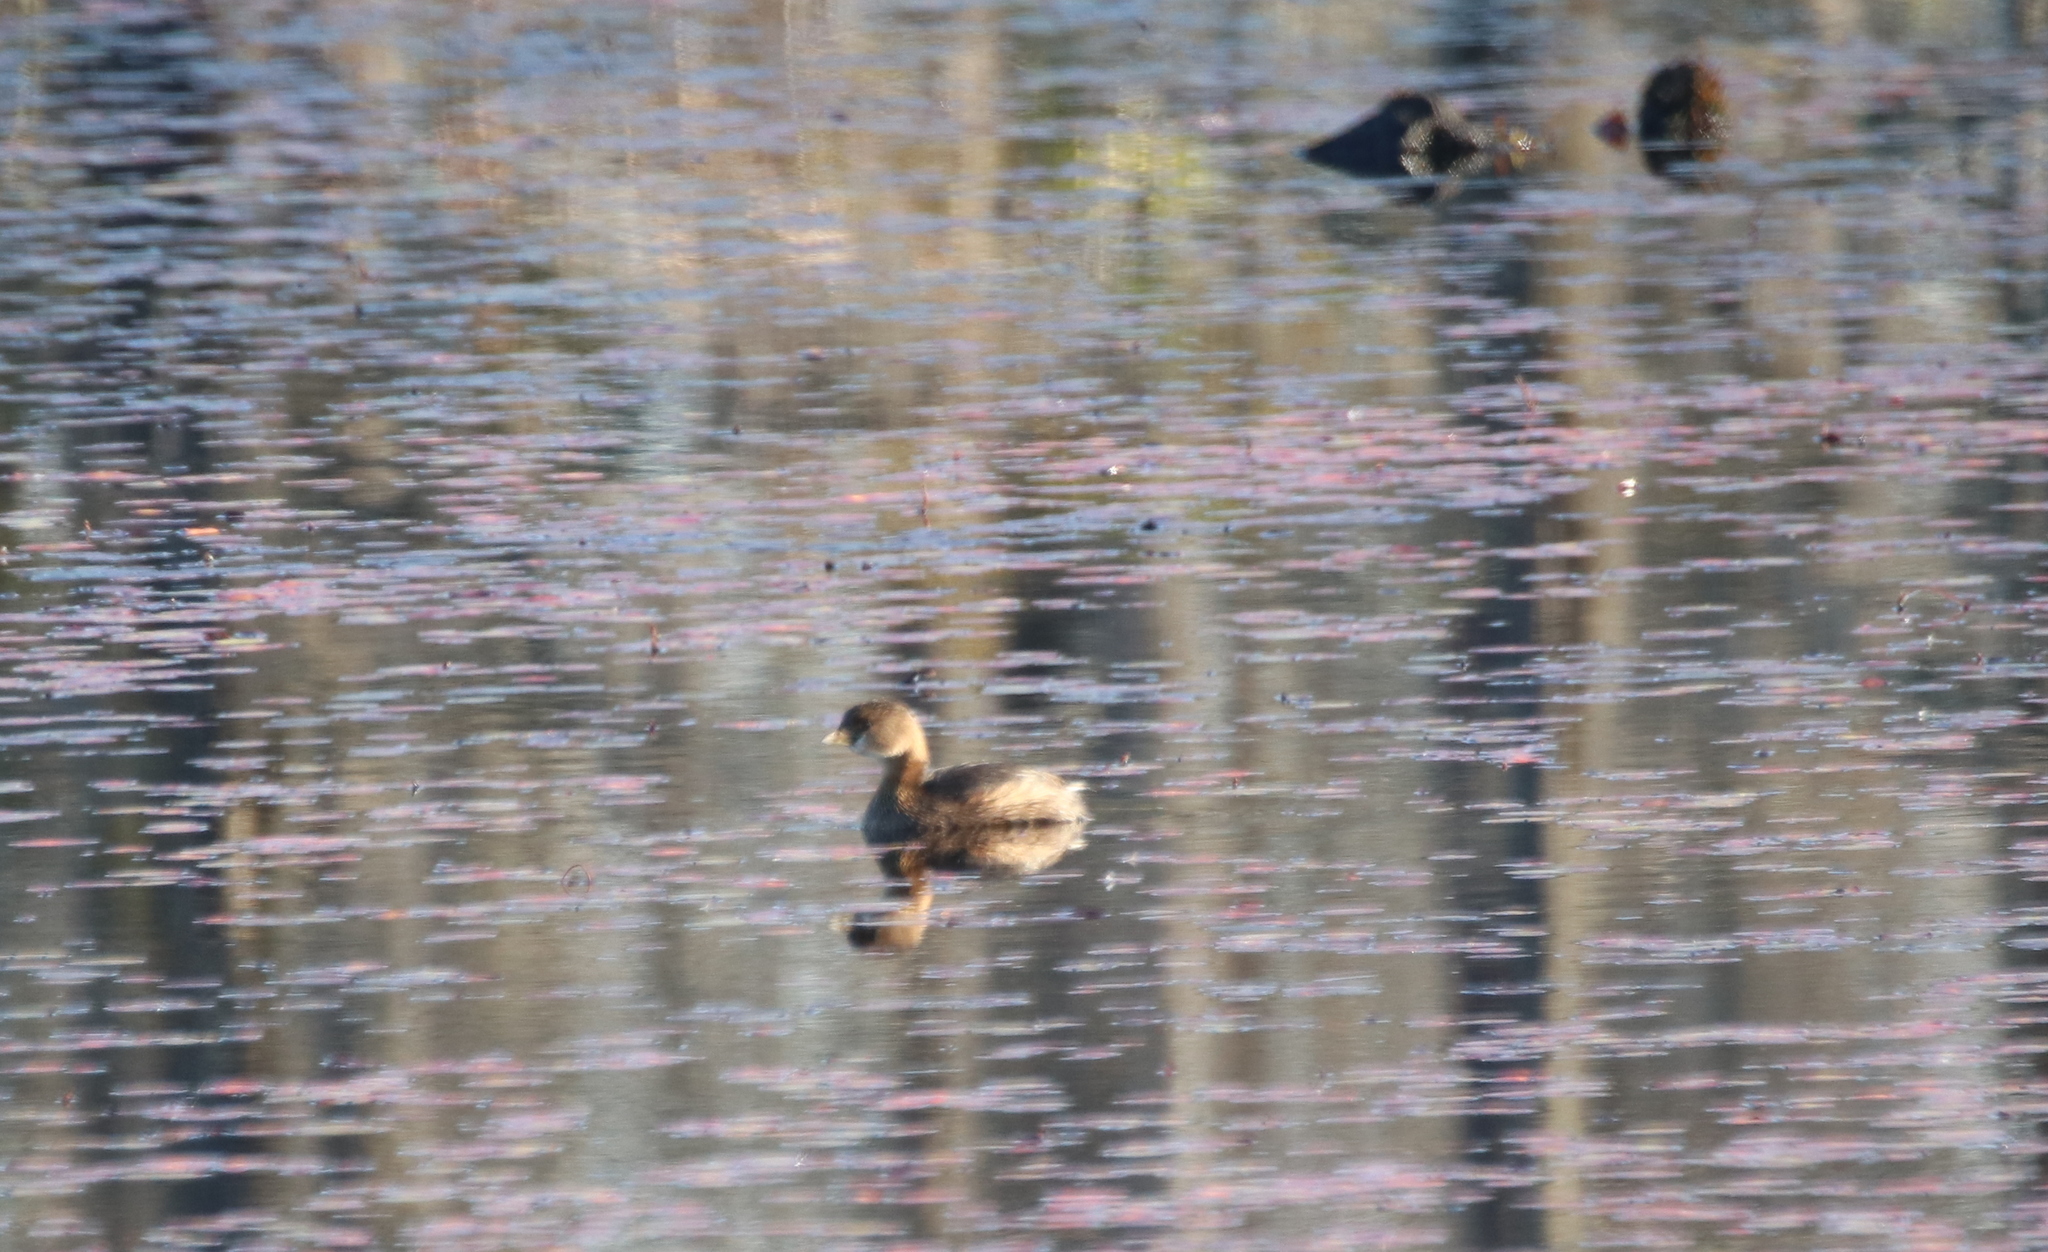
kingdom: Animalia
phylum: Chordata
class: Aves
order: Podicipediformes
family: Podicipedidae
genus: Podilymbus
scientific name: Podilymbus podiceps
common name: Pied-billed grebe
